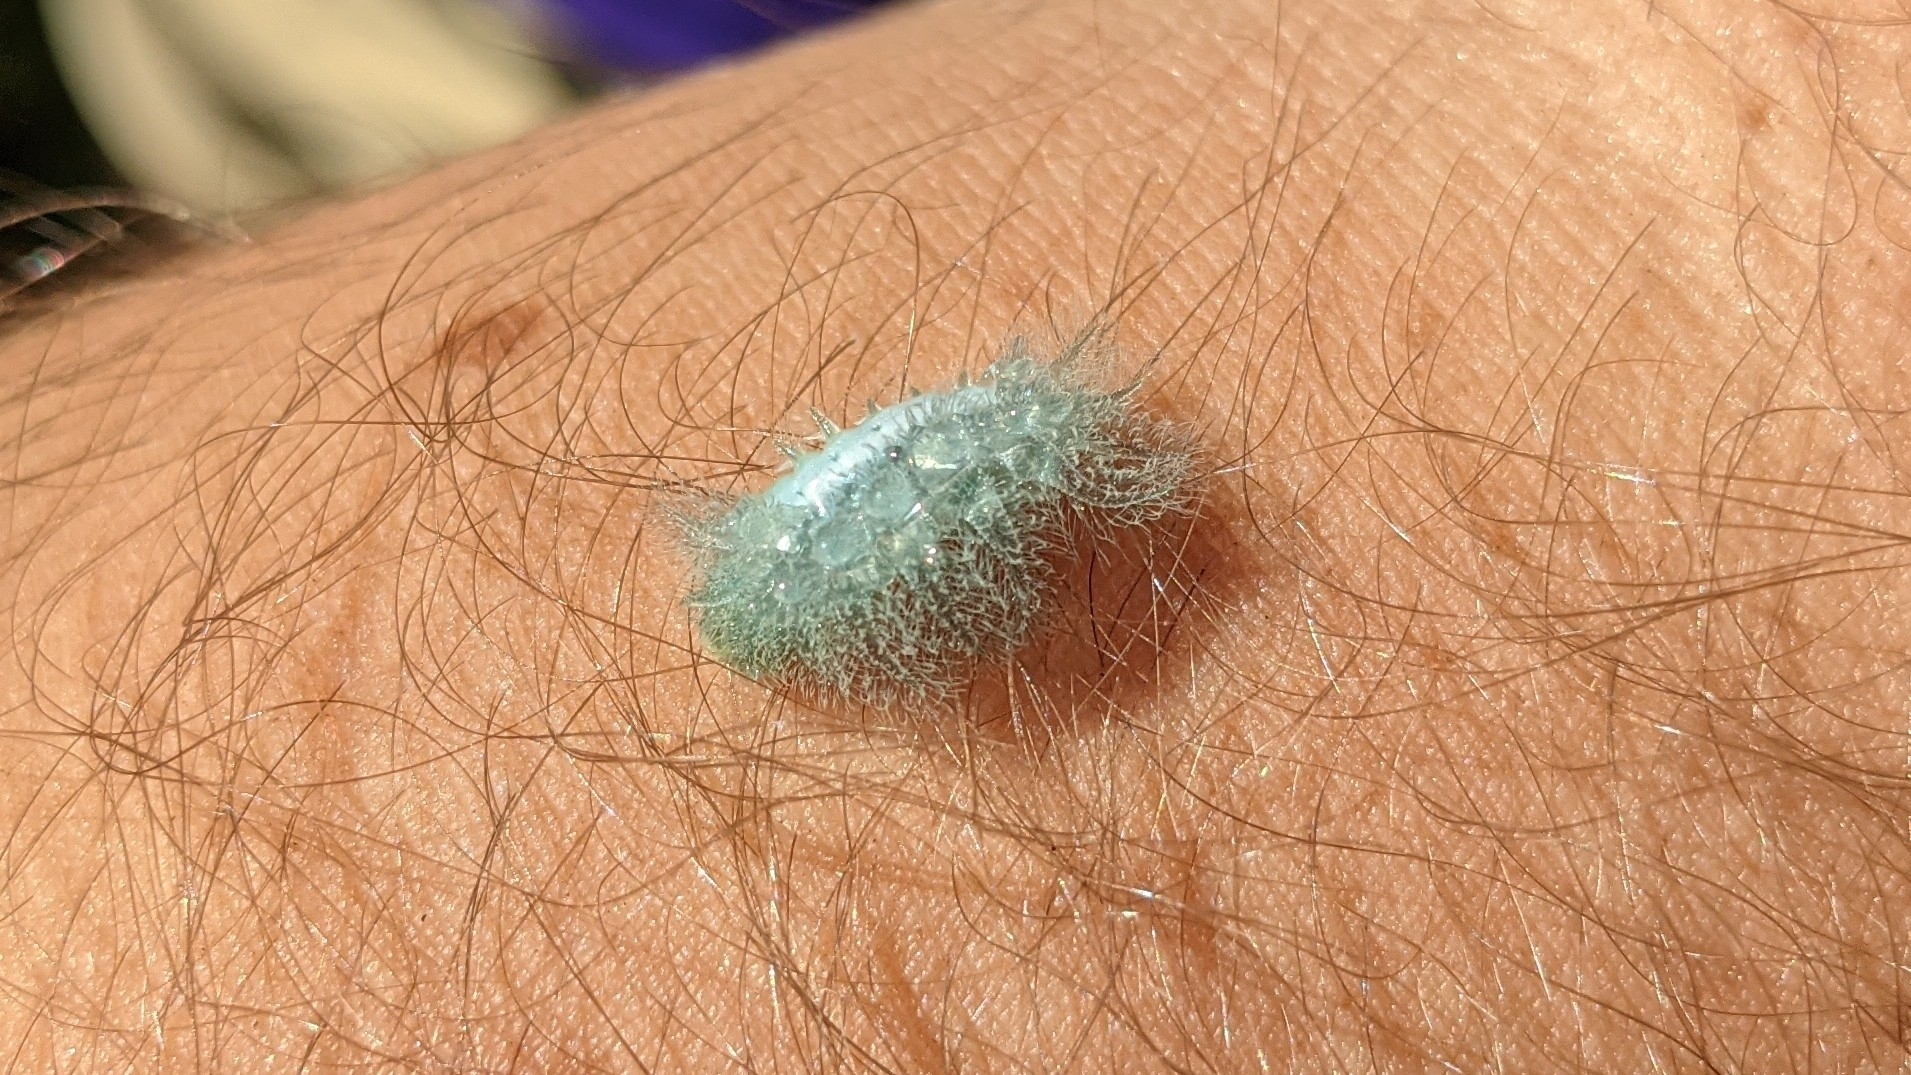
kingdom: Animalia
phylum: Arthropoda
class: Insecta
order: Lepidoptera
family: Limacodidae
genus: Isochaetes
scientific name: Isochaetes beutenmuelleri
